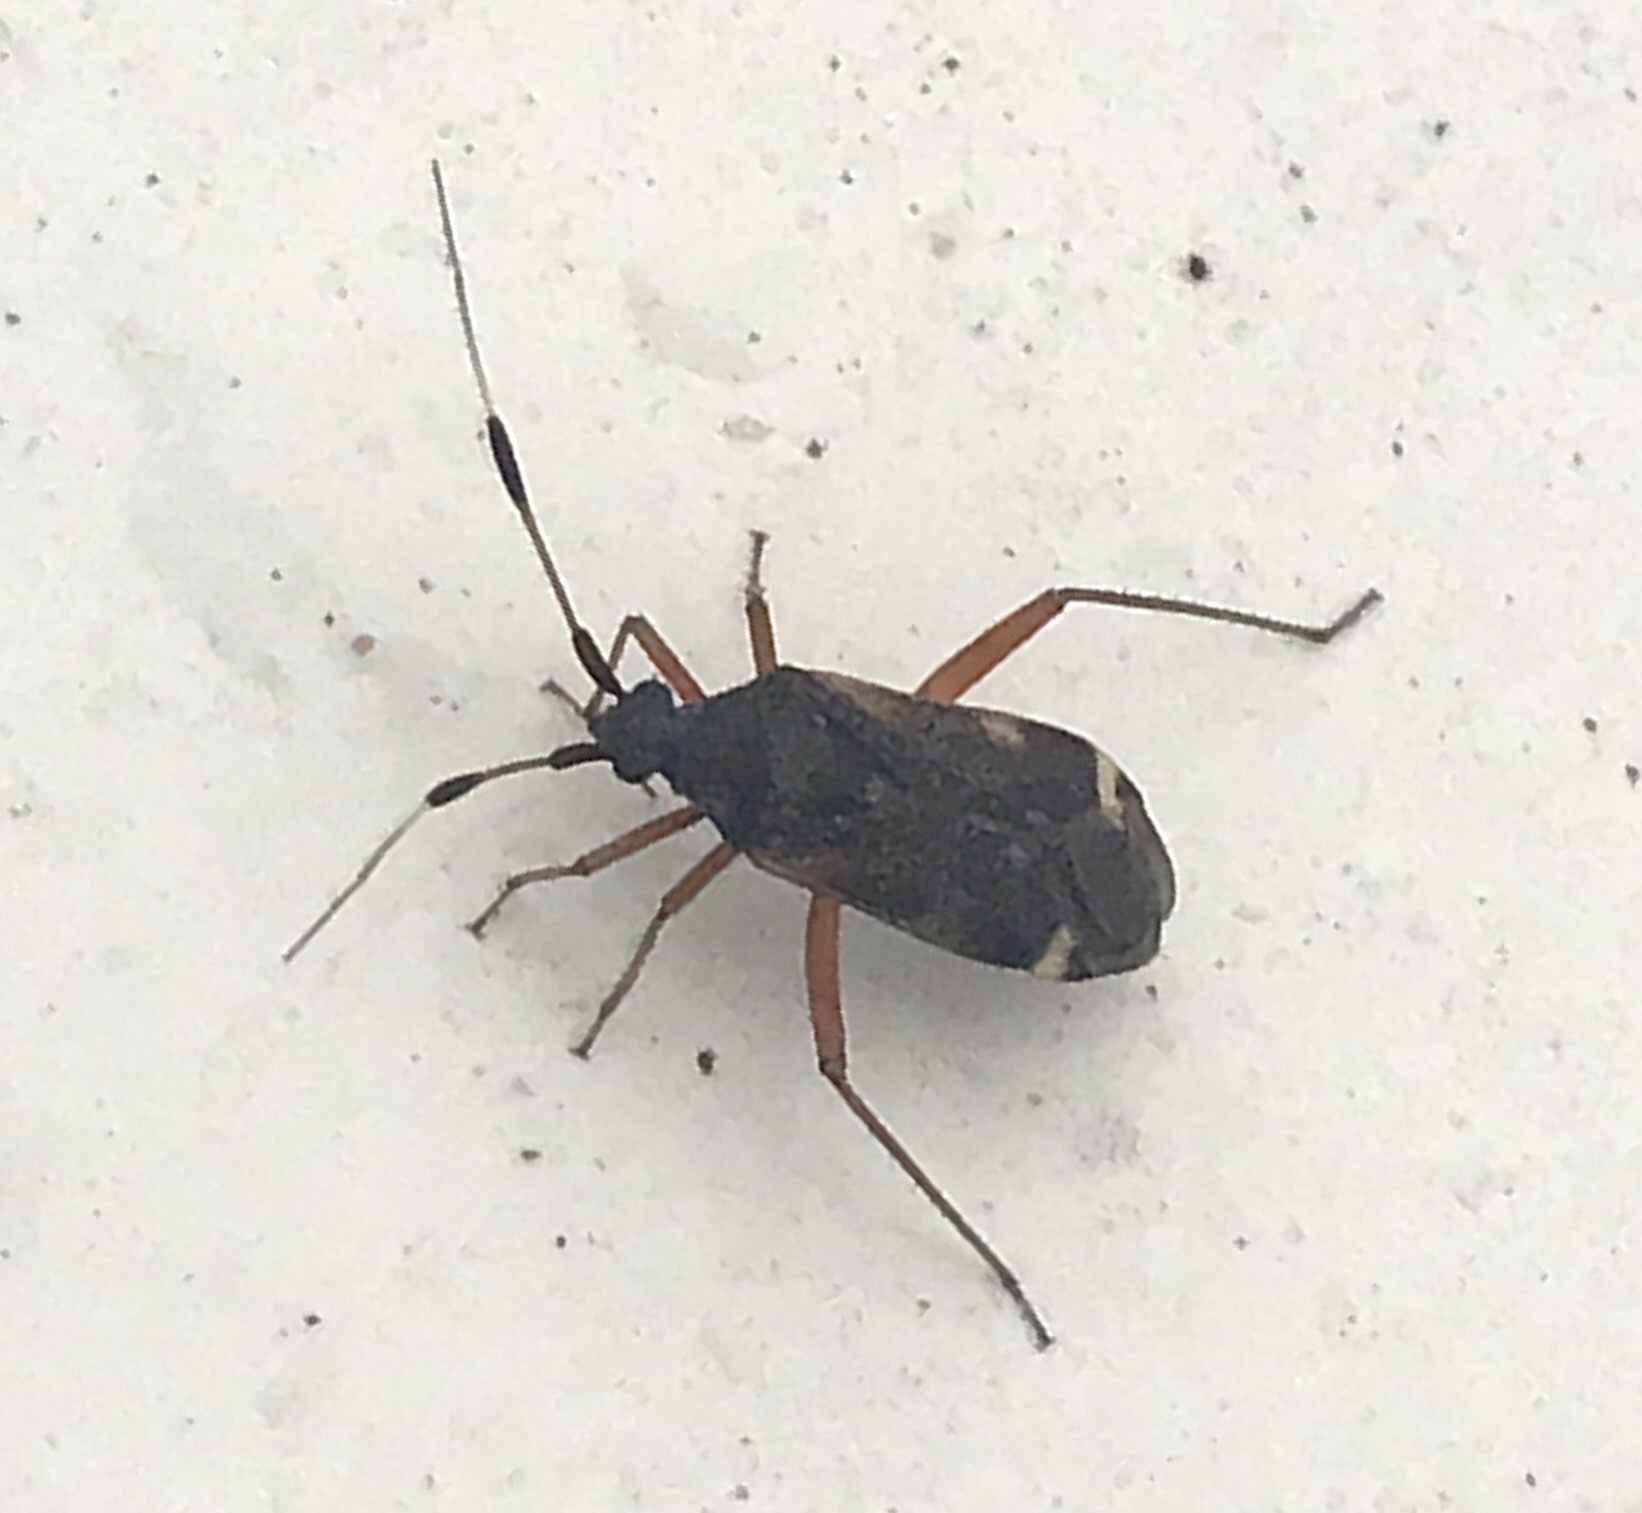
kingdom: Animalia
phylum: Arthropoda
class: Insecta
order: Hemiptera
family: Miridae
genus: Closterotomus
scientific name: Closterotomus biclavatus
